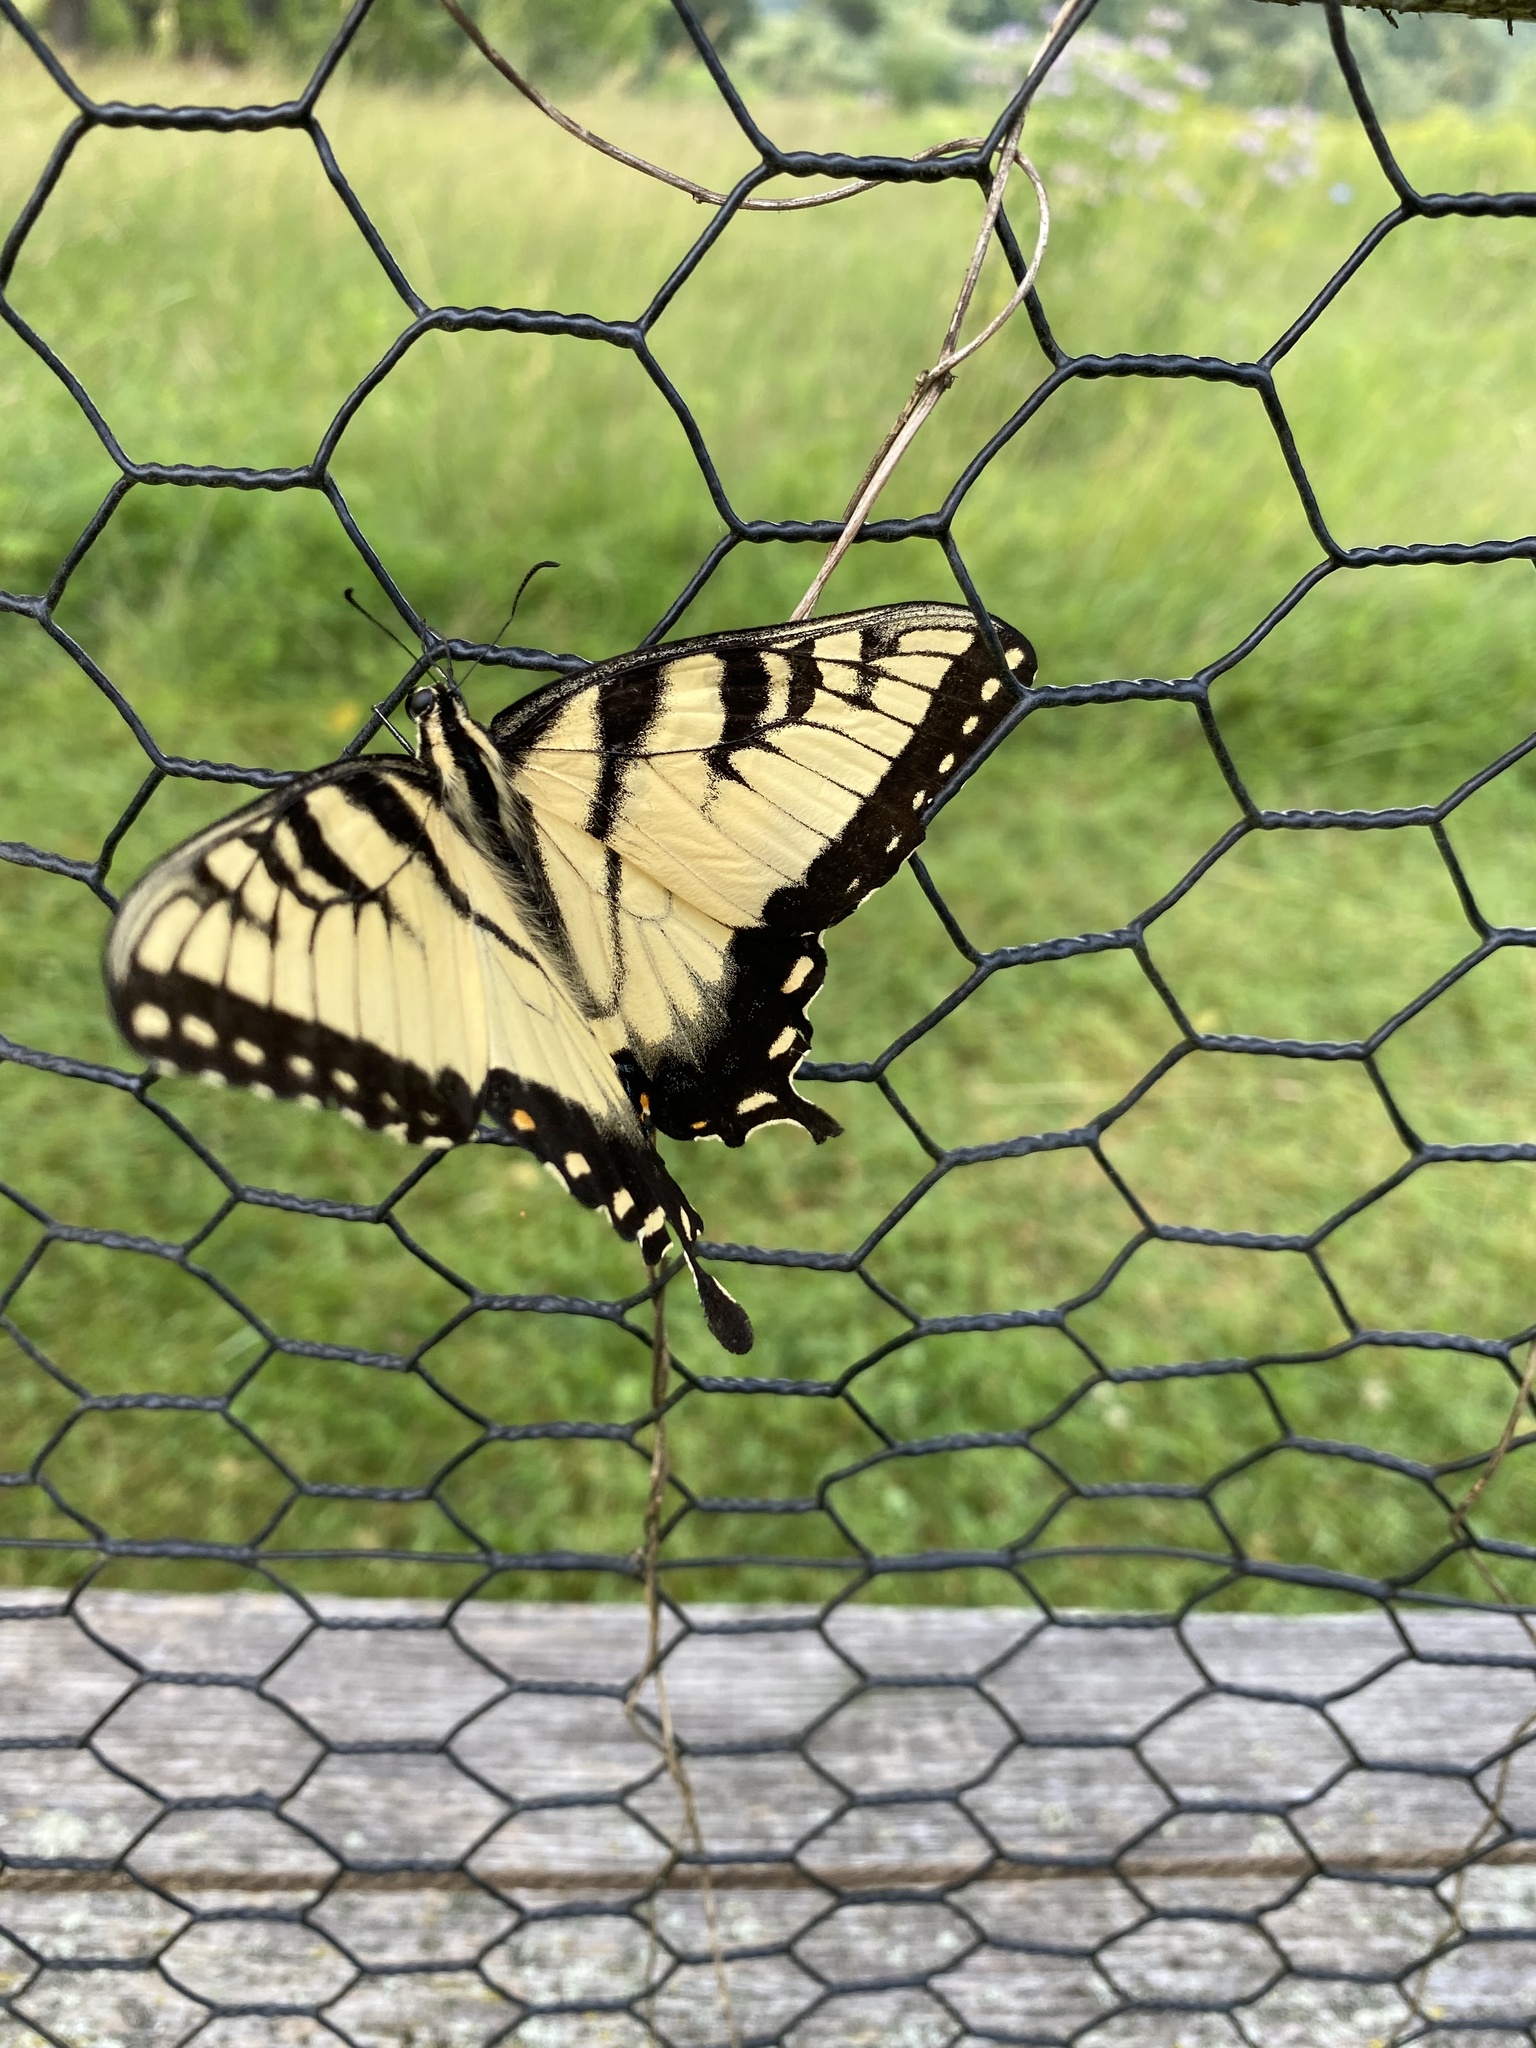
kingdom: Animalia
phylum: Arthropoda
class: Insecta
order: Lepidoptera
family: Papilionidae
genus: Papilio
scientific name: Papilio glaucus
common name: Tiger swallowtail
